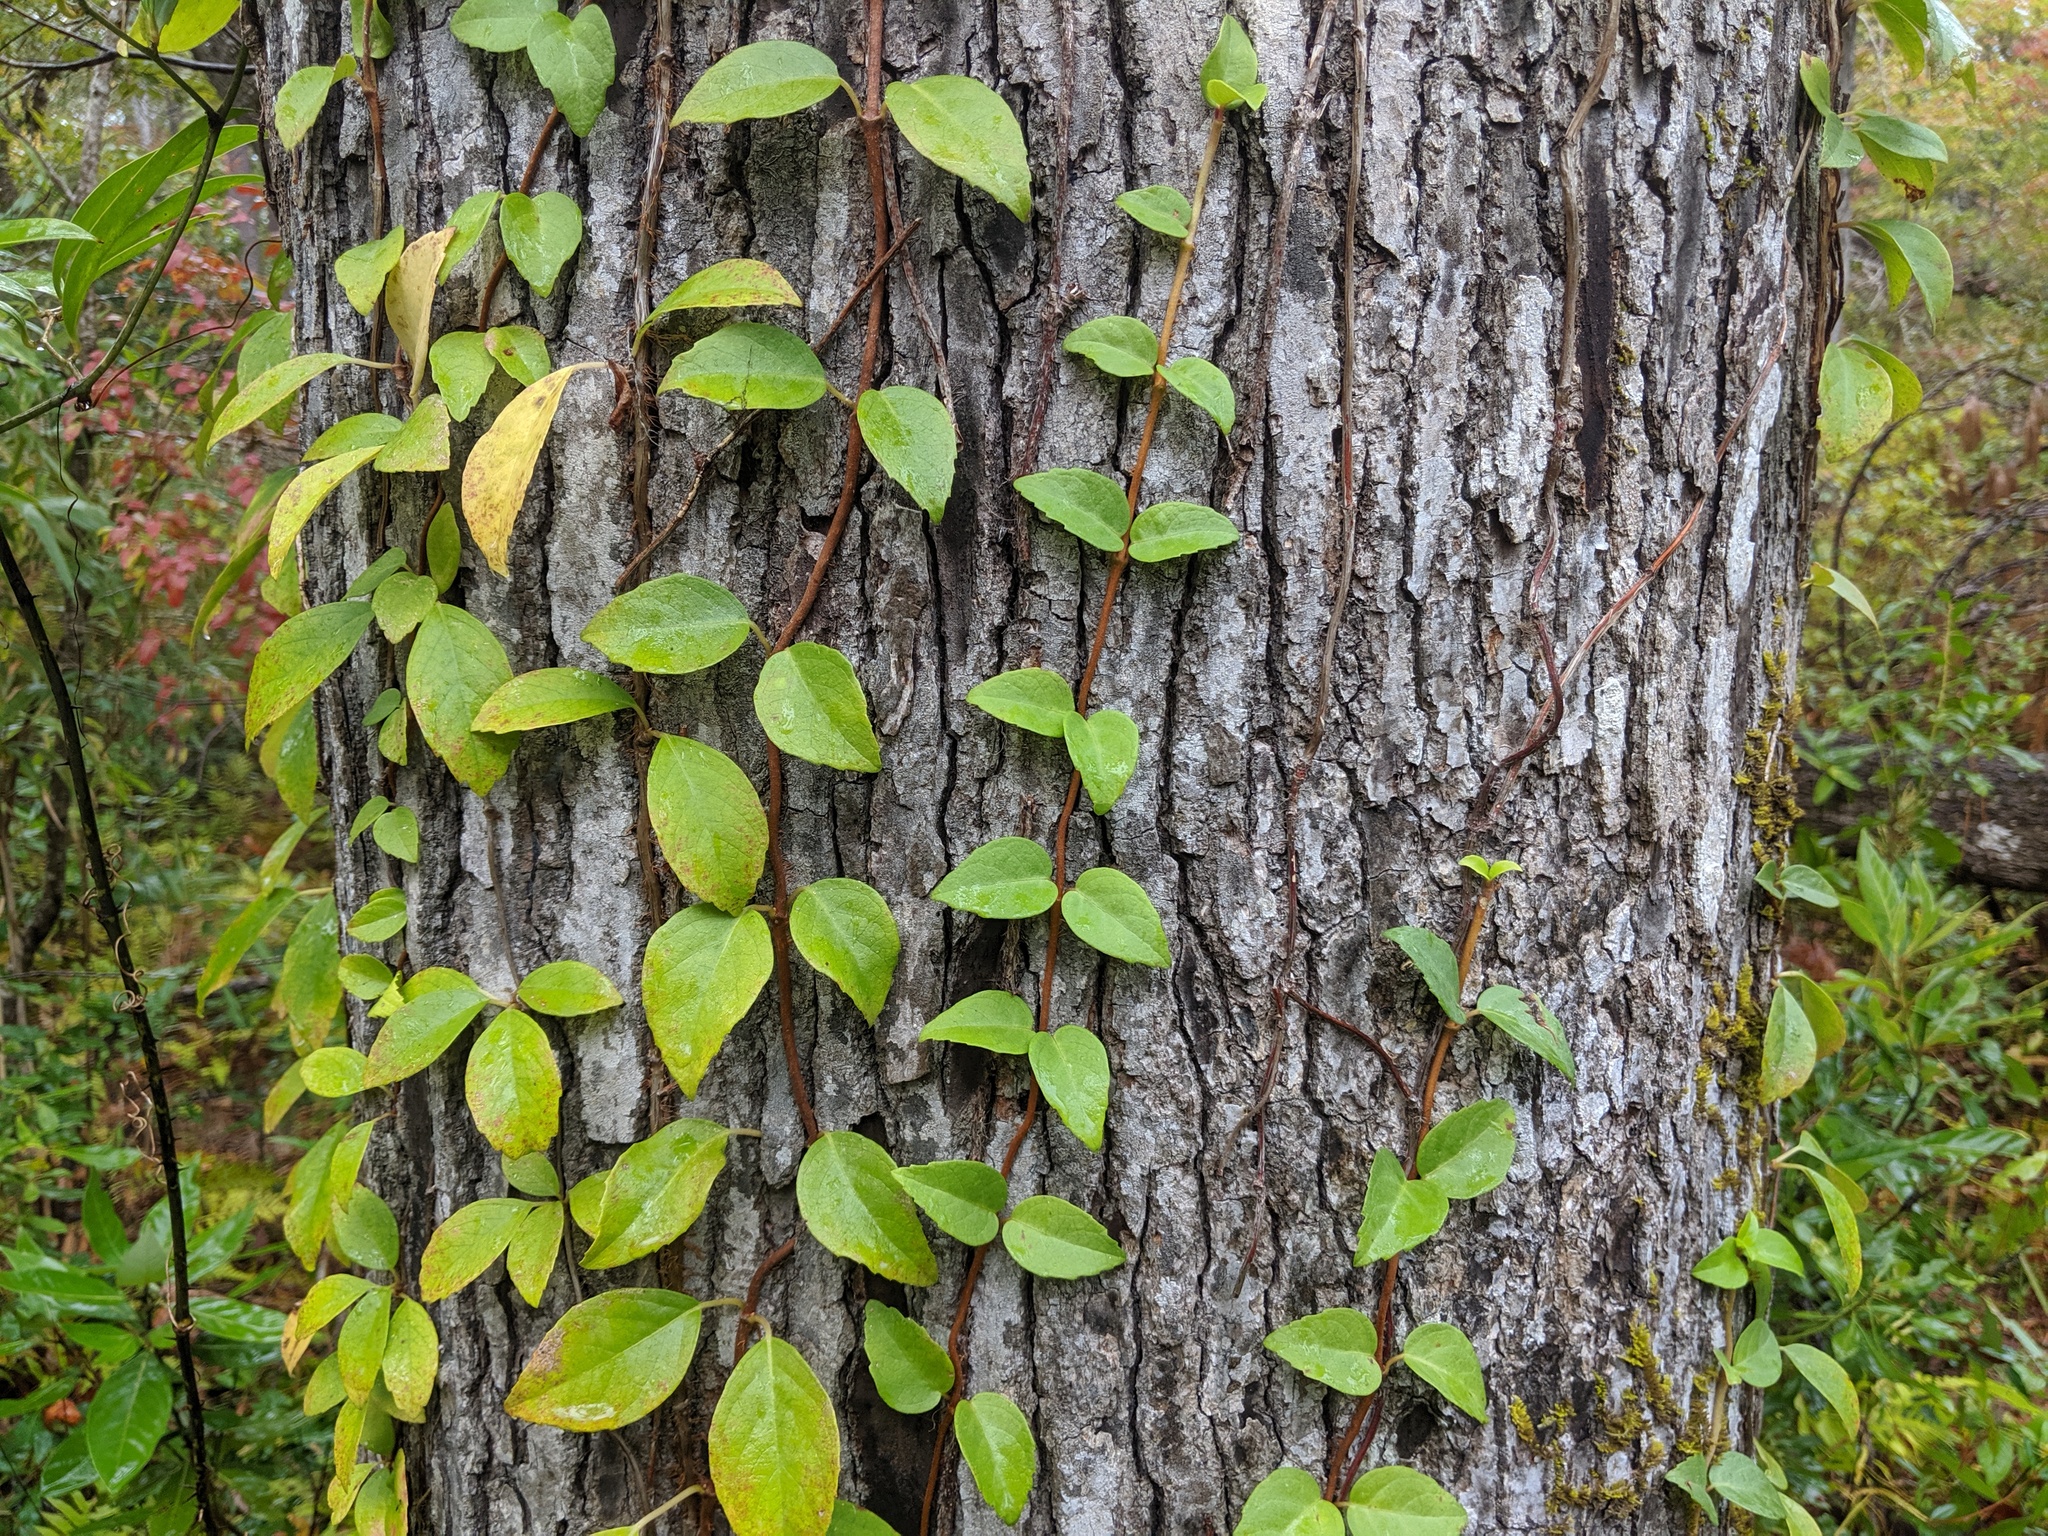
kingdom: Plantae
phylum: Tracheophyta
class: Magnoliopsida
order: Cornales
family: Hydrangeaceae
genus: Hydrangea
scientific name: Hydrangea barbara
